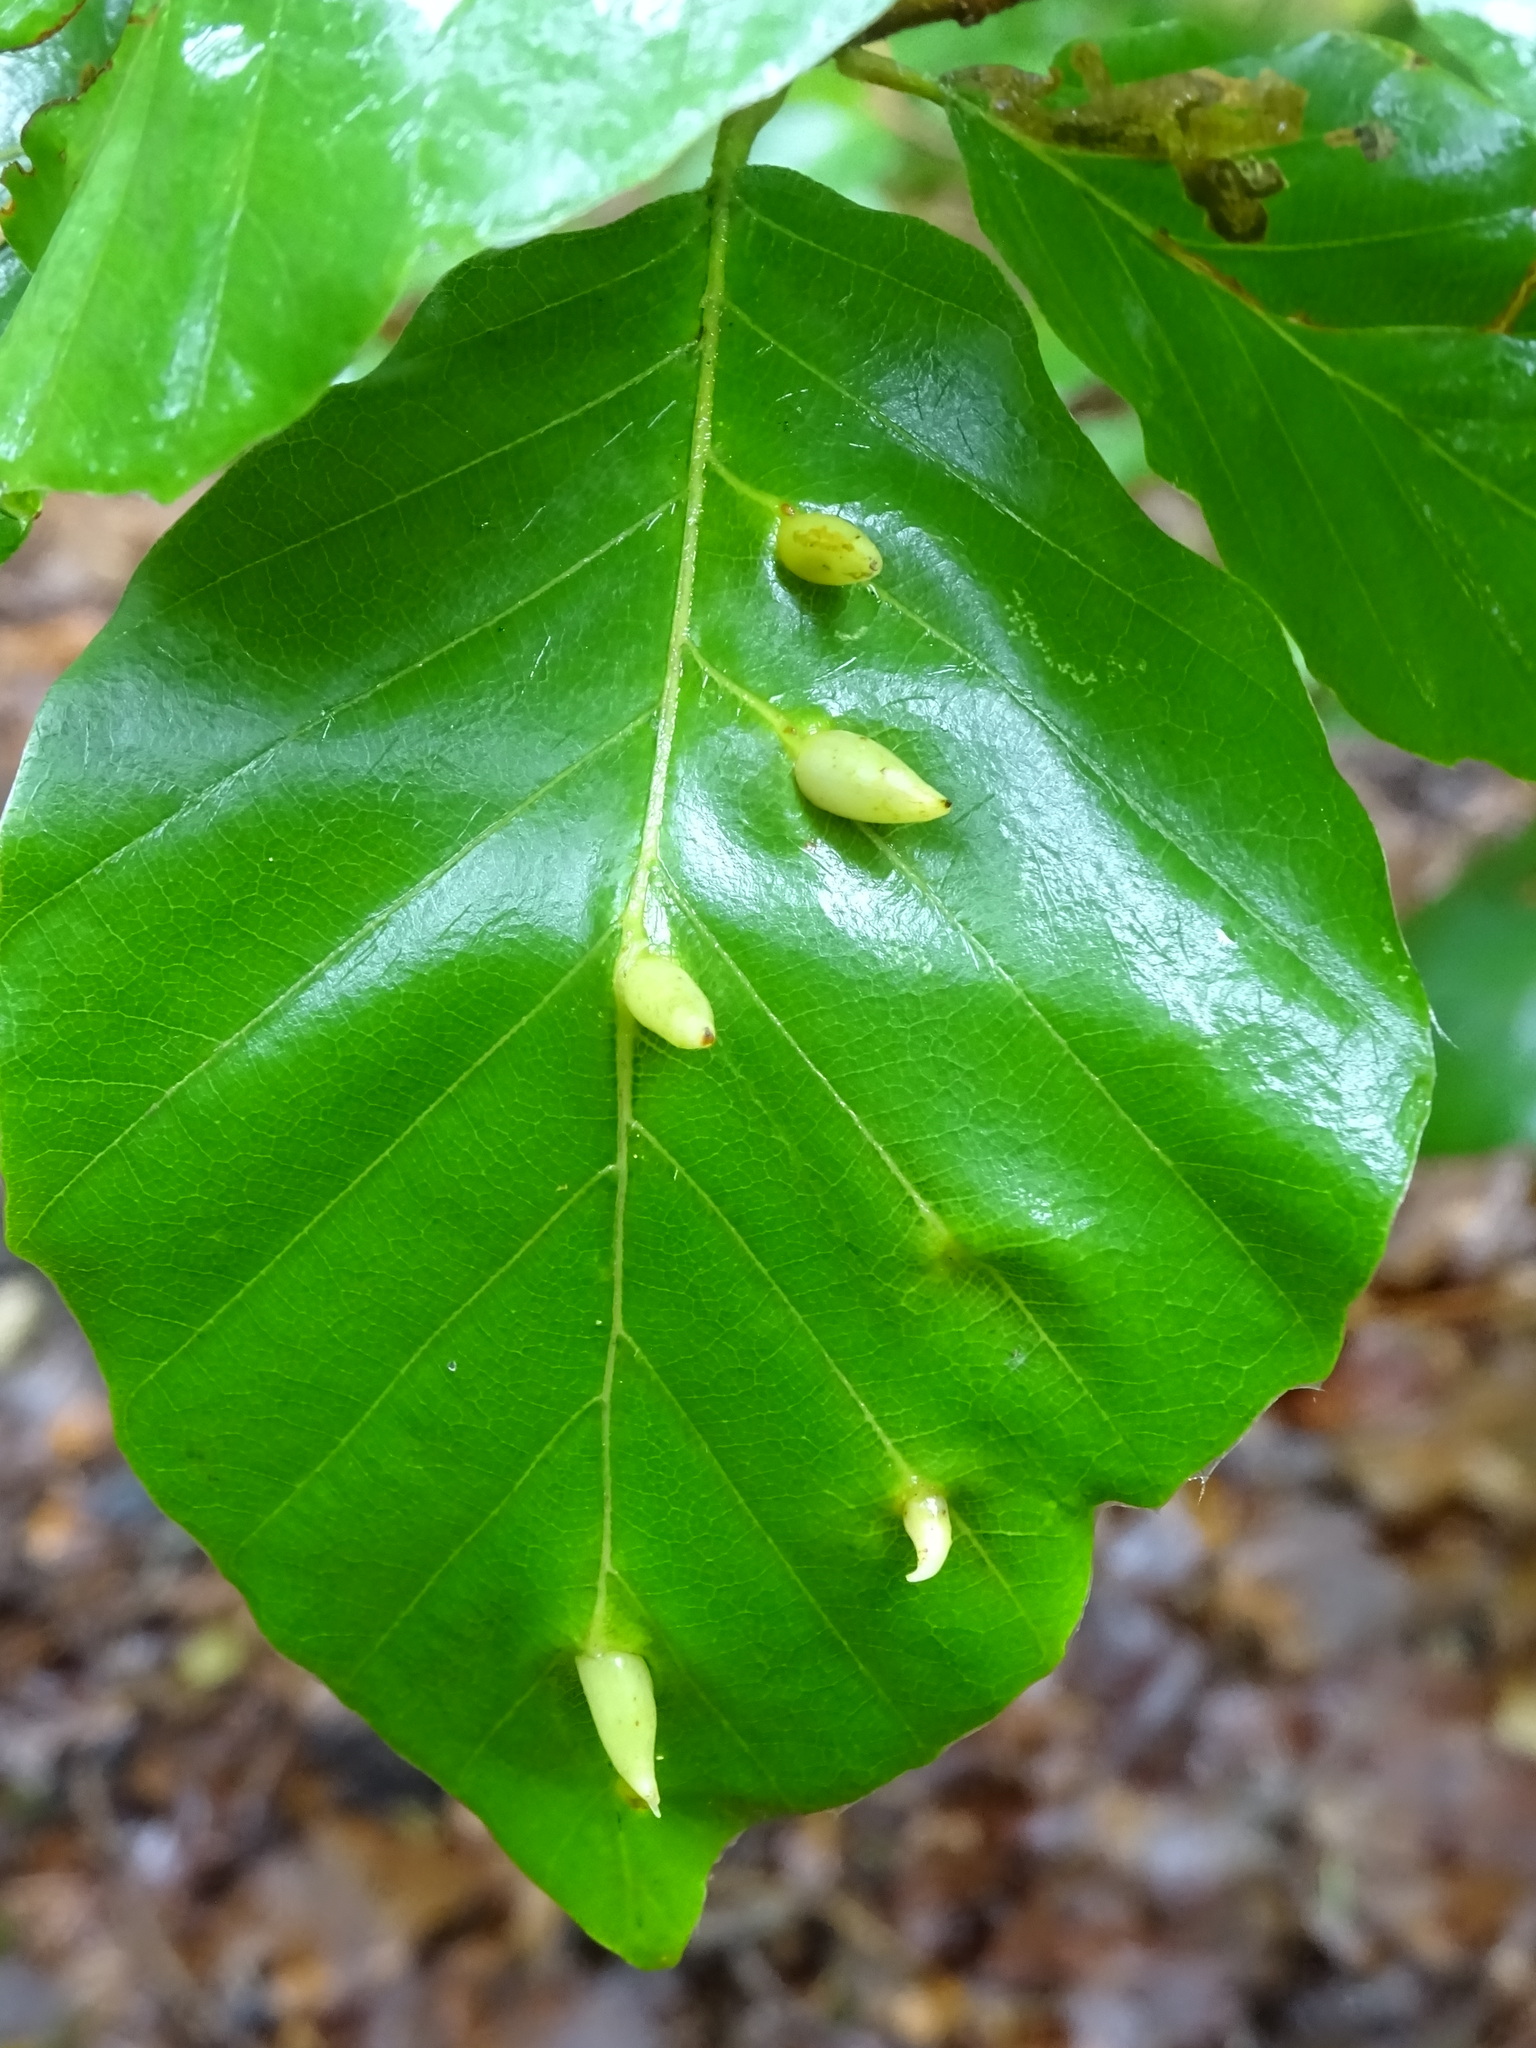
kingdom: Animalia
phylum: Arthropoda
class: Insecta
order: Diptera
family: Cecidomyiidae
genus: Mikiola
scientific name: Mikiola fagi
